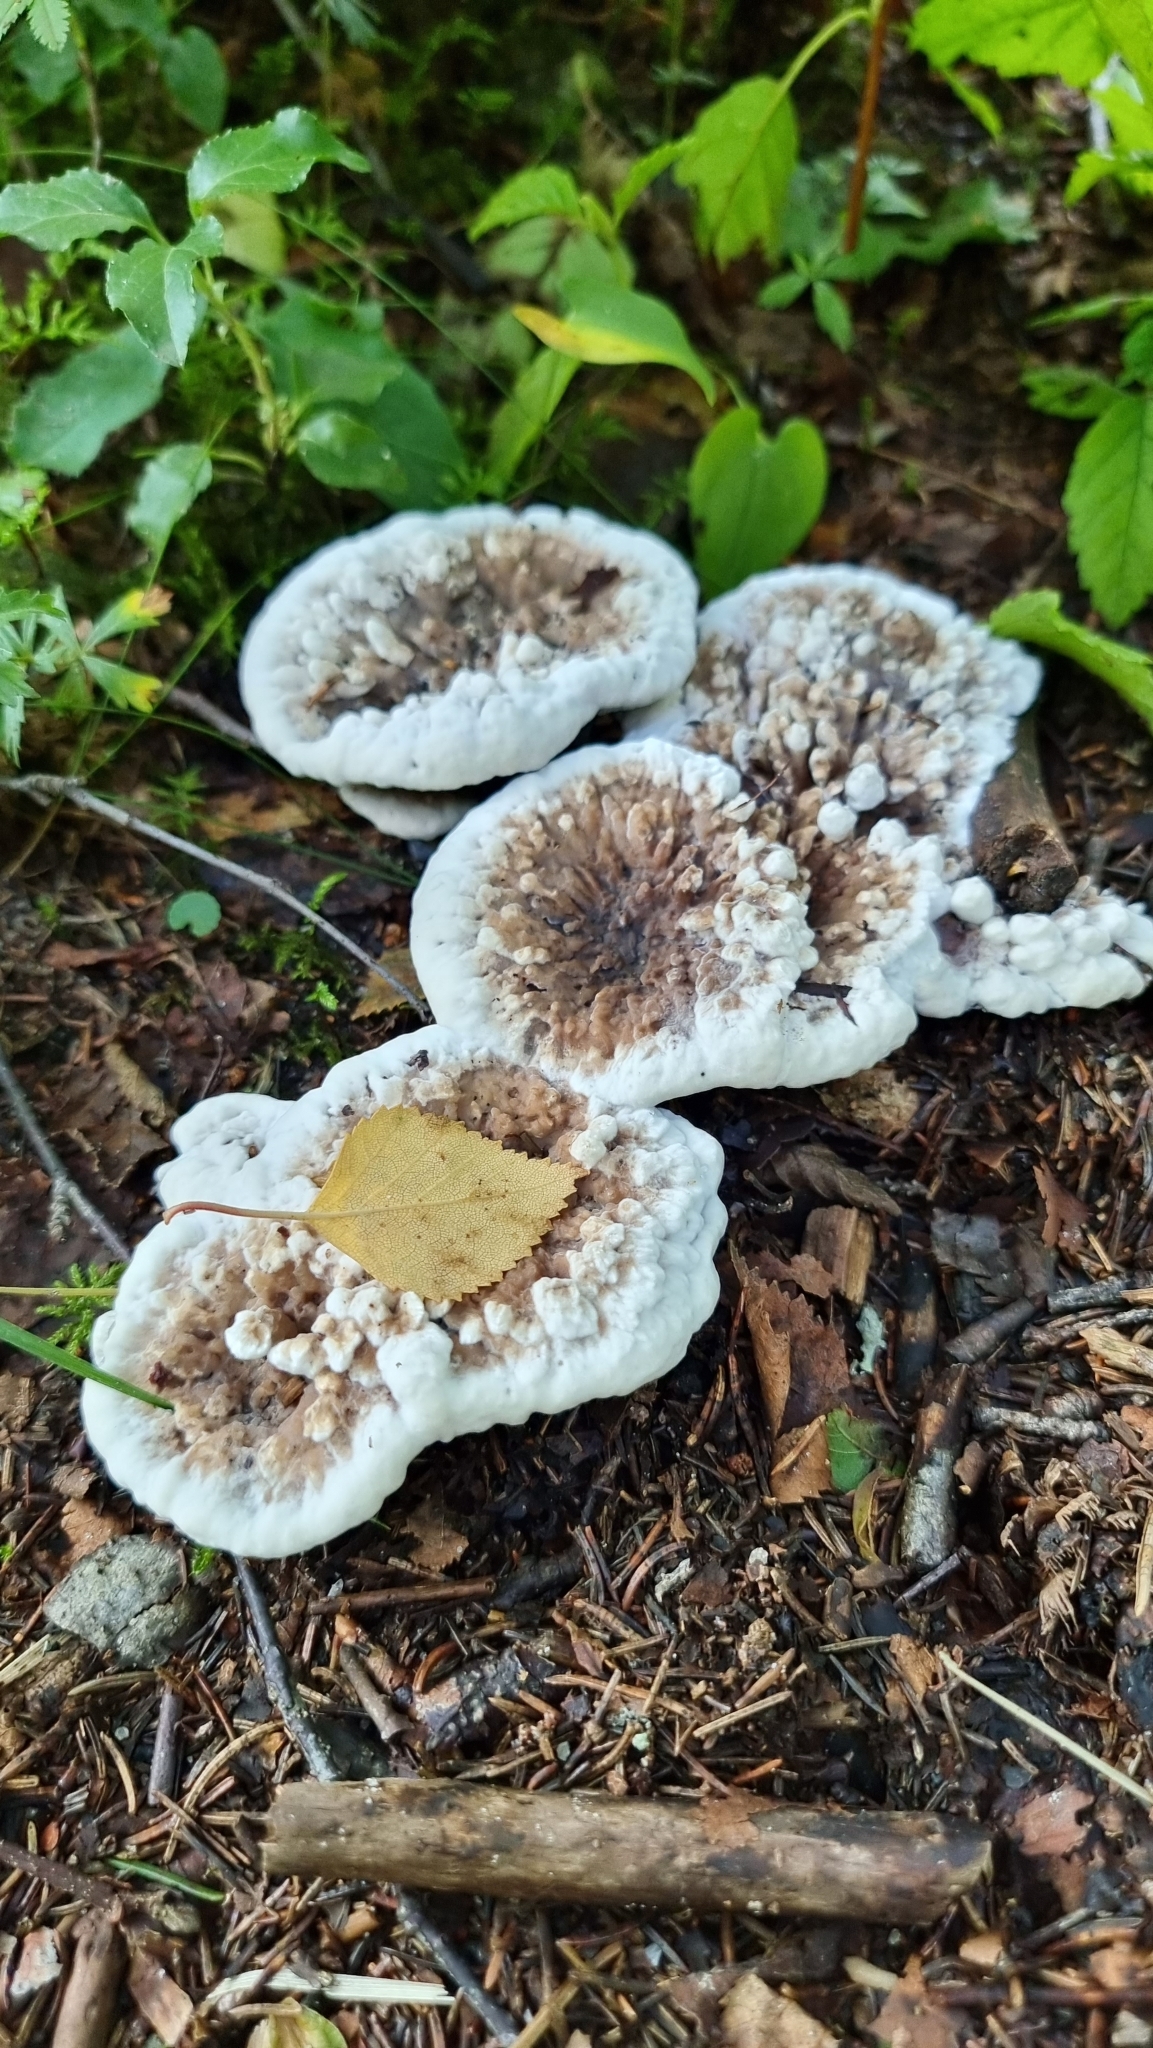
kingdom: Fungi
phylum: Basidiomycota
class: Agaricomycetes
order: Thelephorales
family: Bankeraceae
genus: Hydnellum
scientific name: Hydnellum suaveolens
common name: Sweetgrass hydnellum
